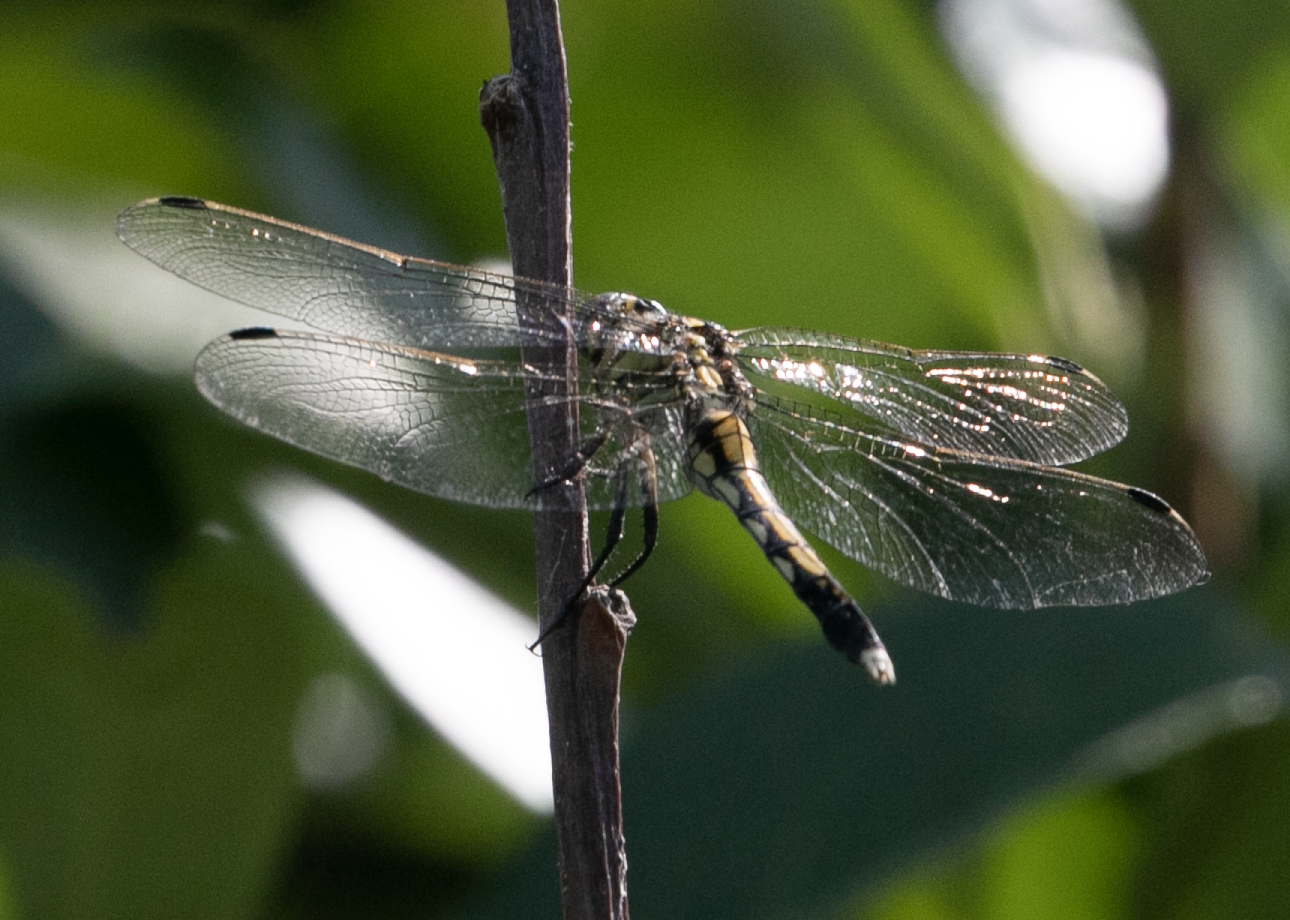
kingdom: Animalia
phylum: Arthropoda
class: Insecta
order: Odonata
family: Libellulidae
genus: Orthetrum
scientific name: Orthetrum albistylum
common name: White-tailed skimmer
